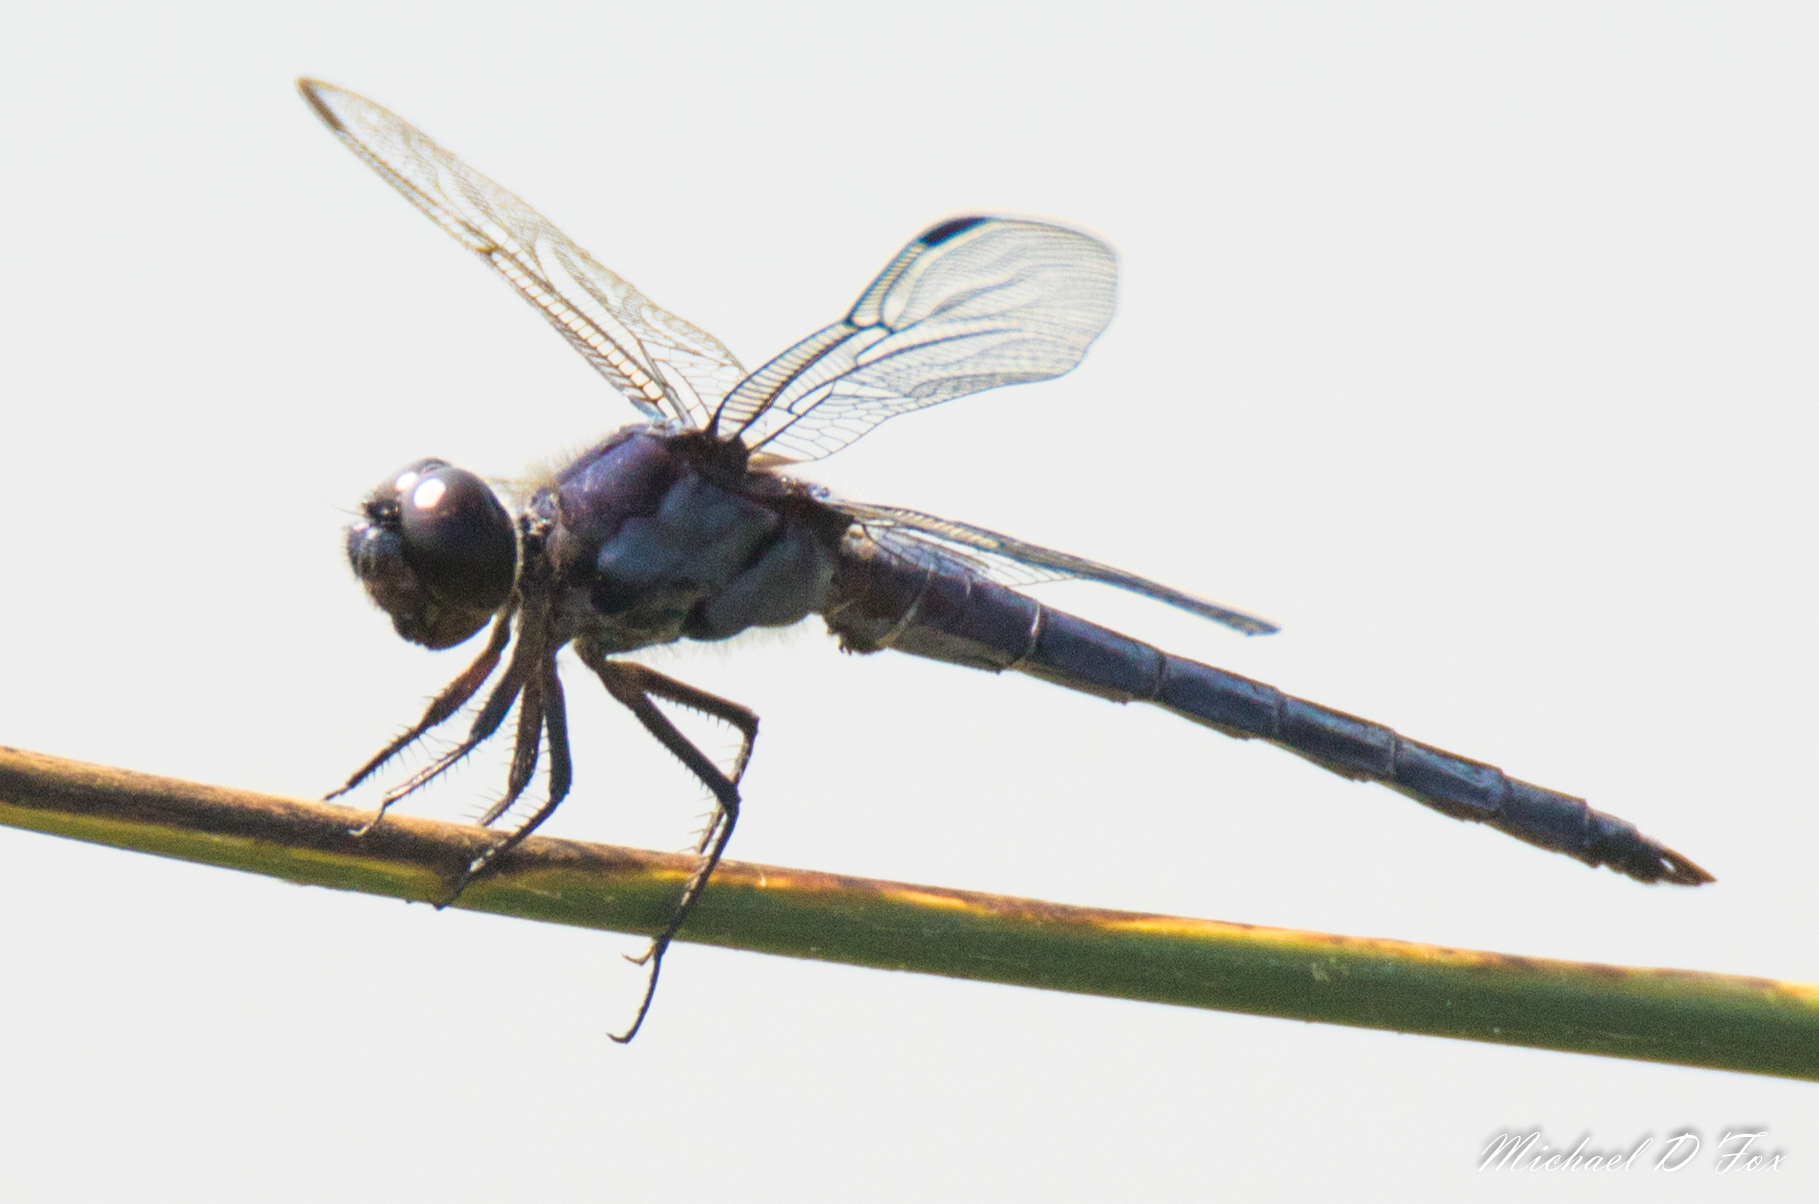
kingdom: Animalia
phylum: Arthropoda
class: Insecta
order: Odonata
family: Libellulidae
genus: Libellula
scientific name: Libellula incesta
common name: Slaty skimmer
